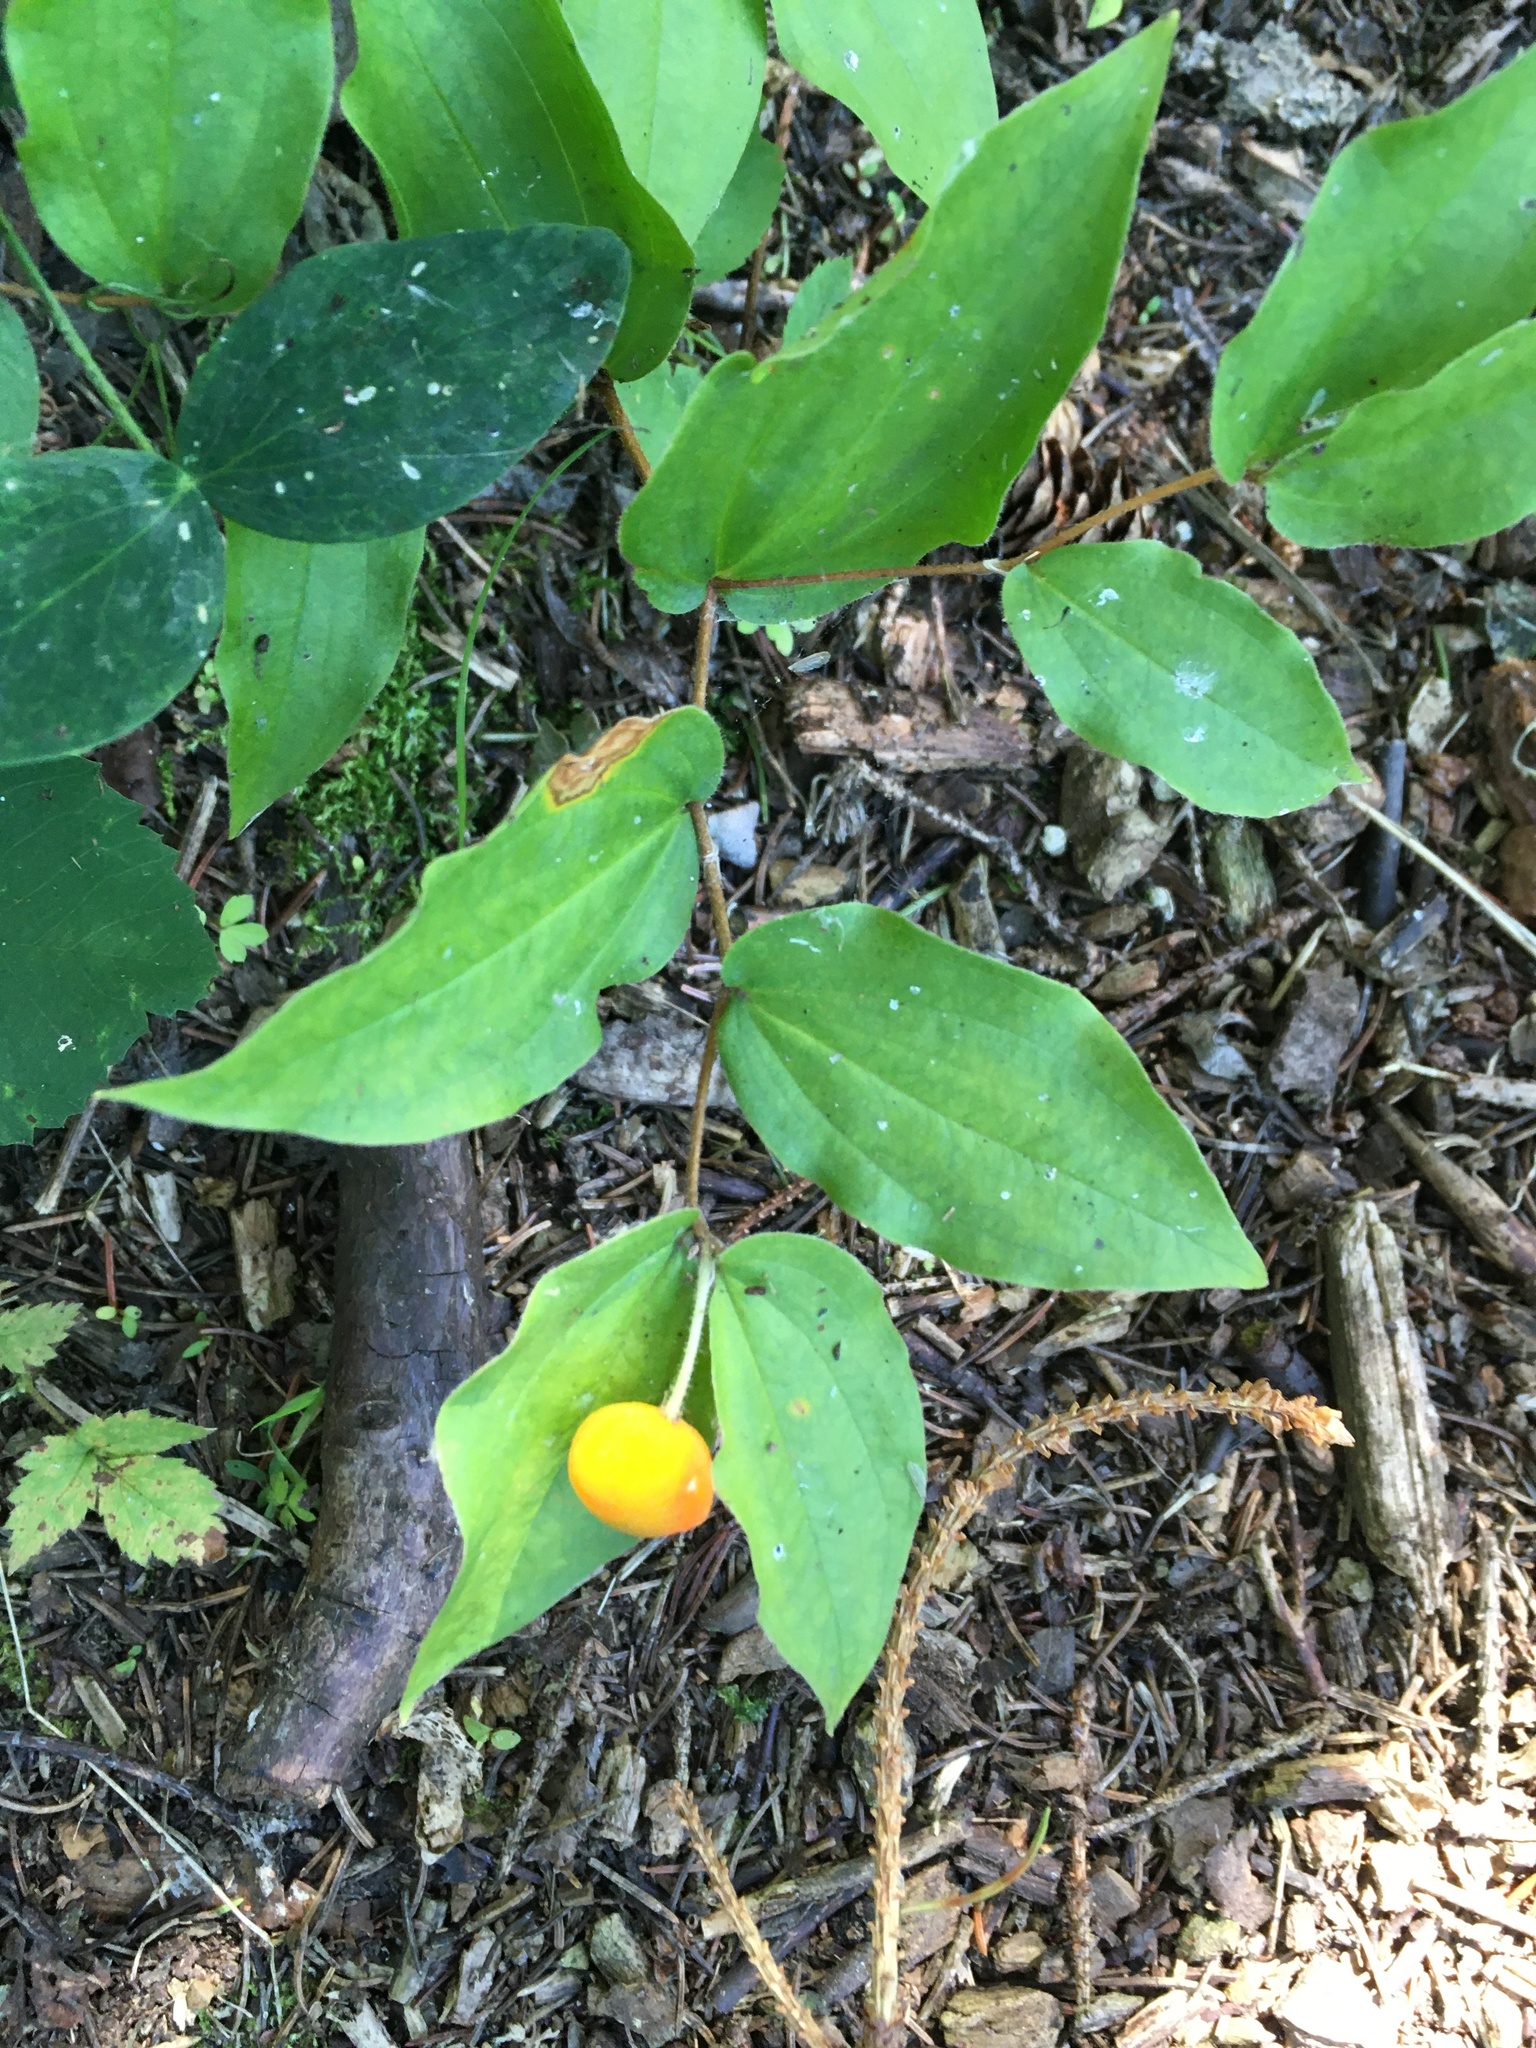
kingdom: Plantae
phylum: Tracheophyta
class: Liliopsida
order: Liliales
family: Liliaceae
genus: Prosartes
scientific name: Prosartes trachycarpa
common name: Rough-fruit fairy-bells
